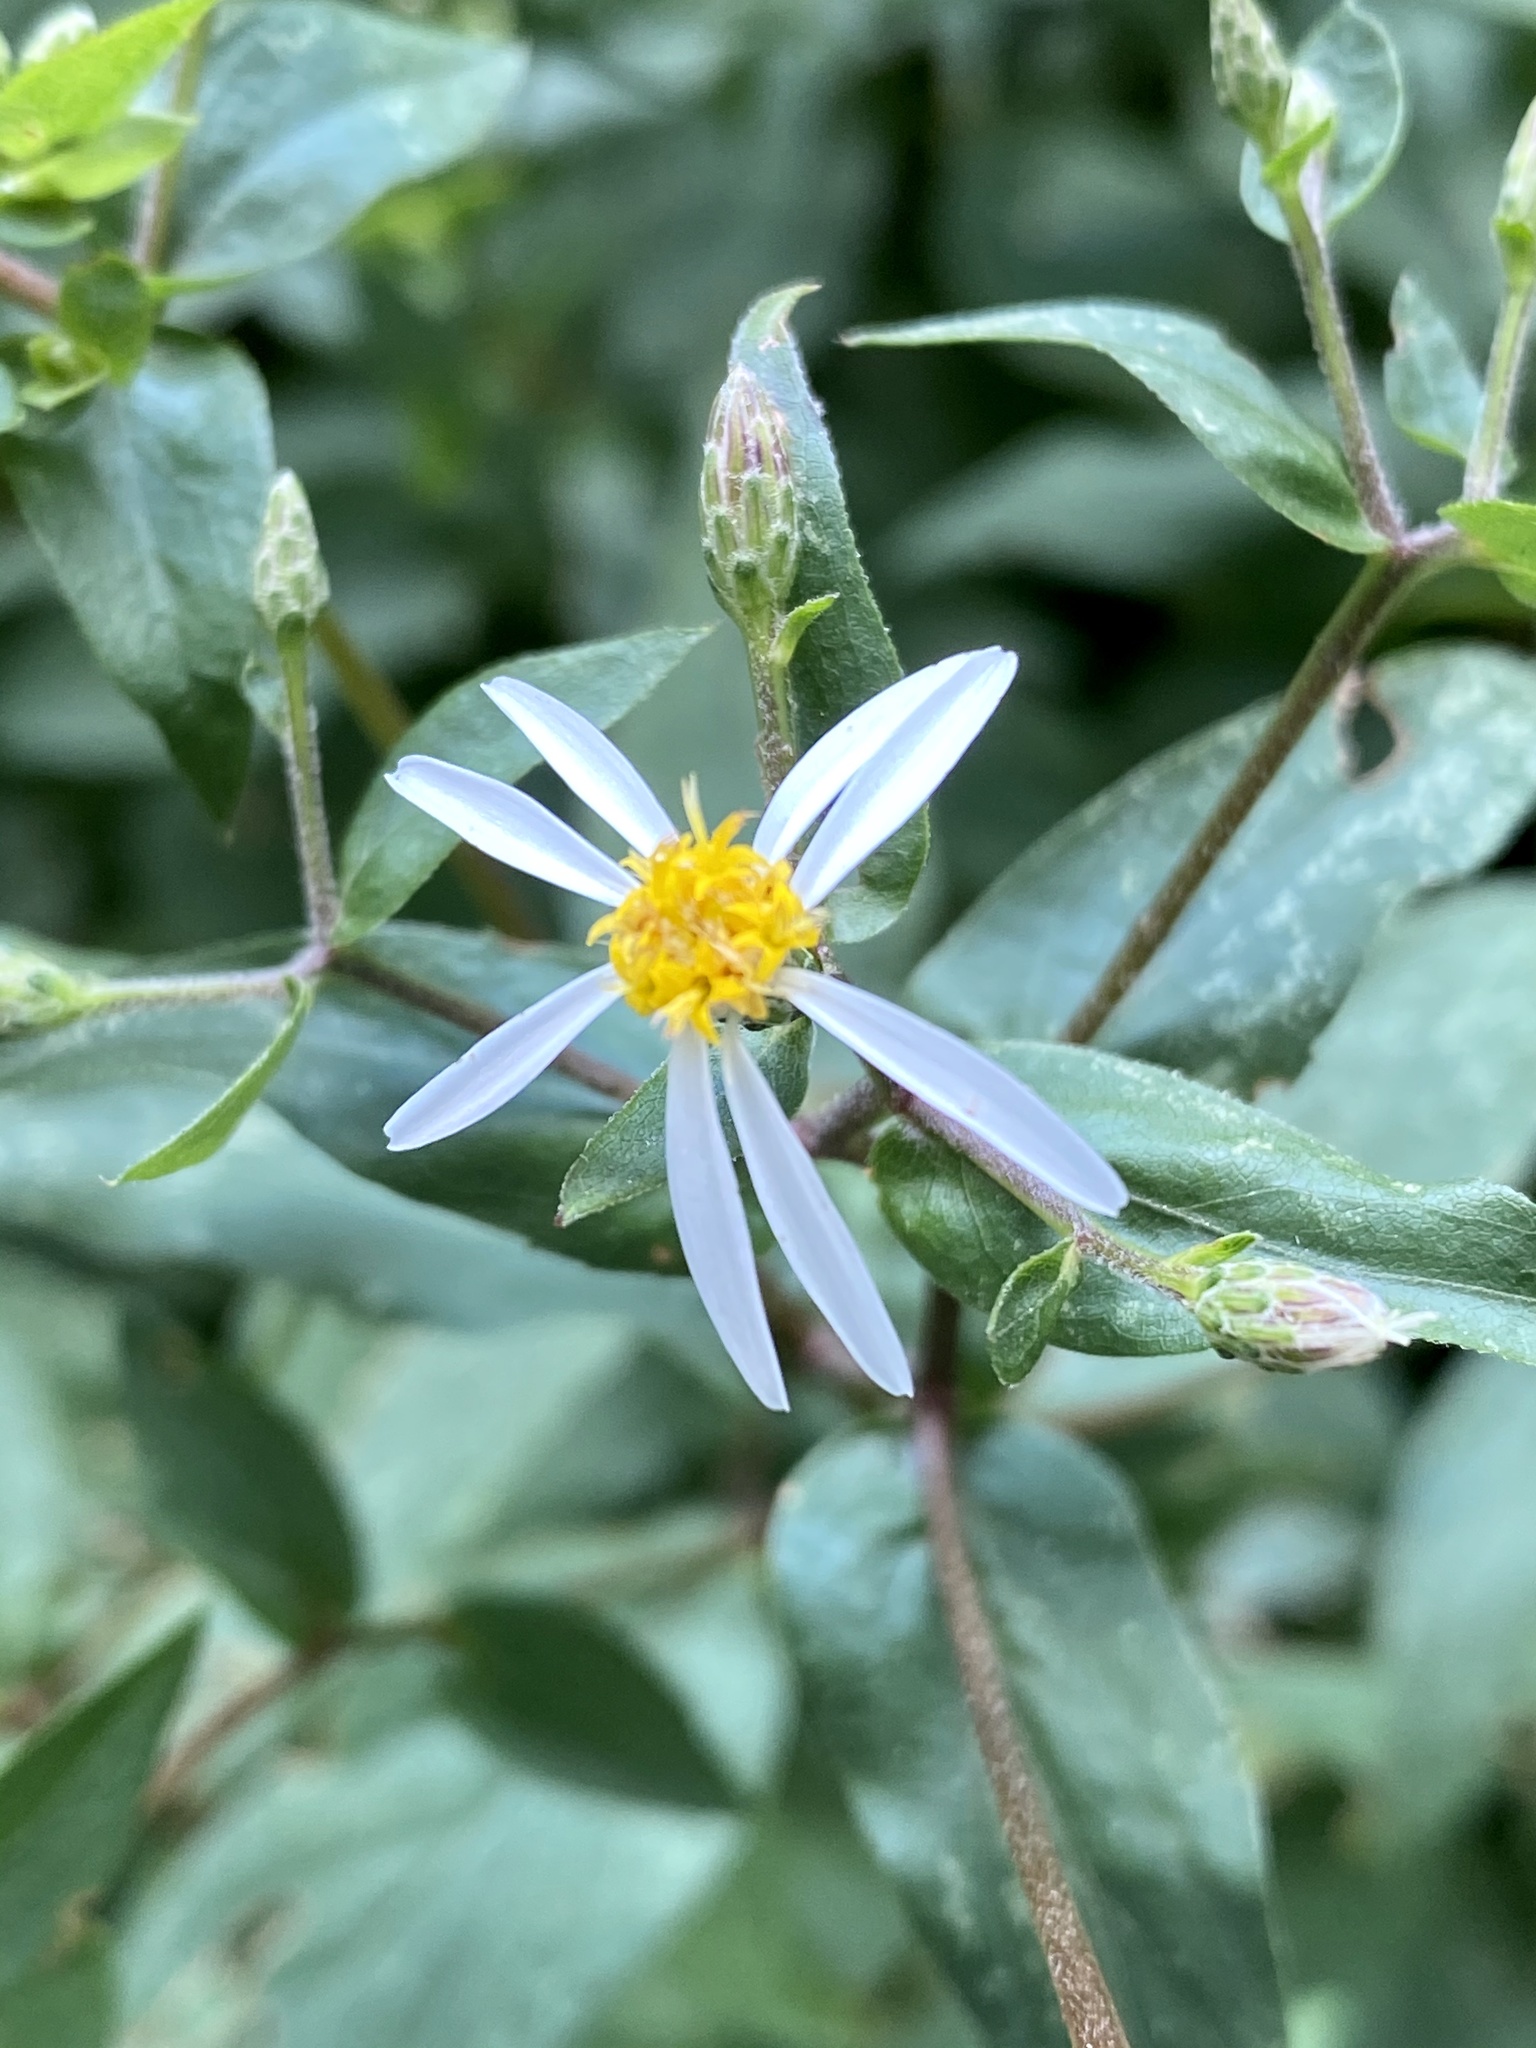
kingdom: Plantae
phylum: Tracheophyta
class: Magnoliopsida
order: Asterales
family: Asteraceae
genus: Eurybia
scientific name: Eurybia divaricata
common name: White wood aster
